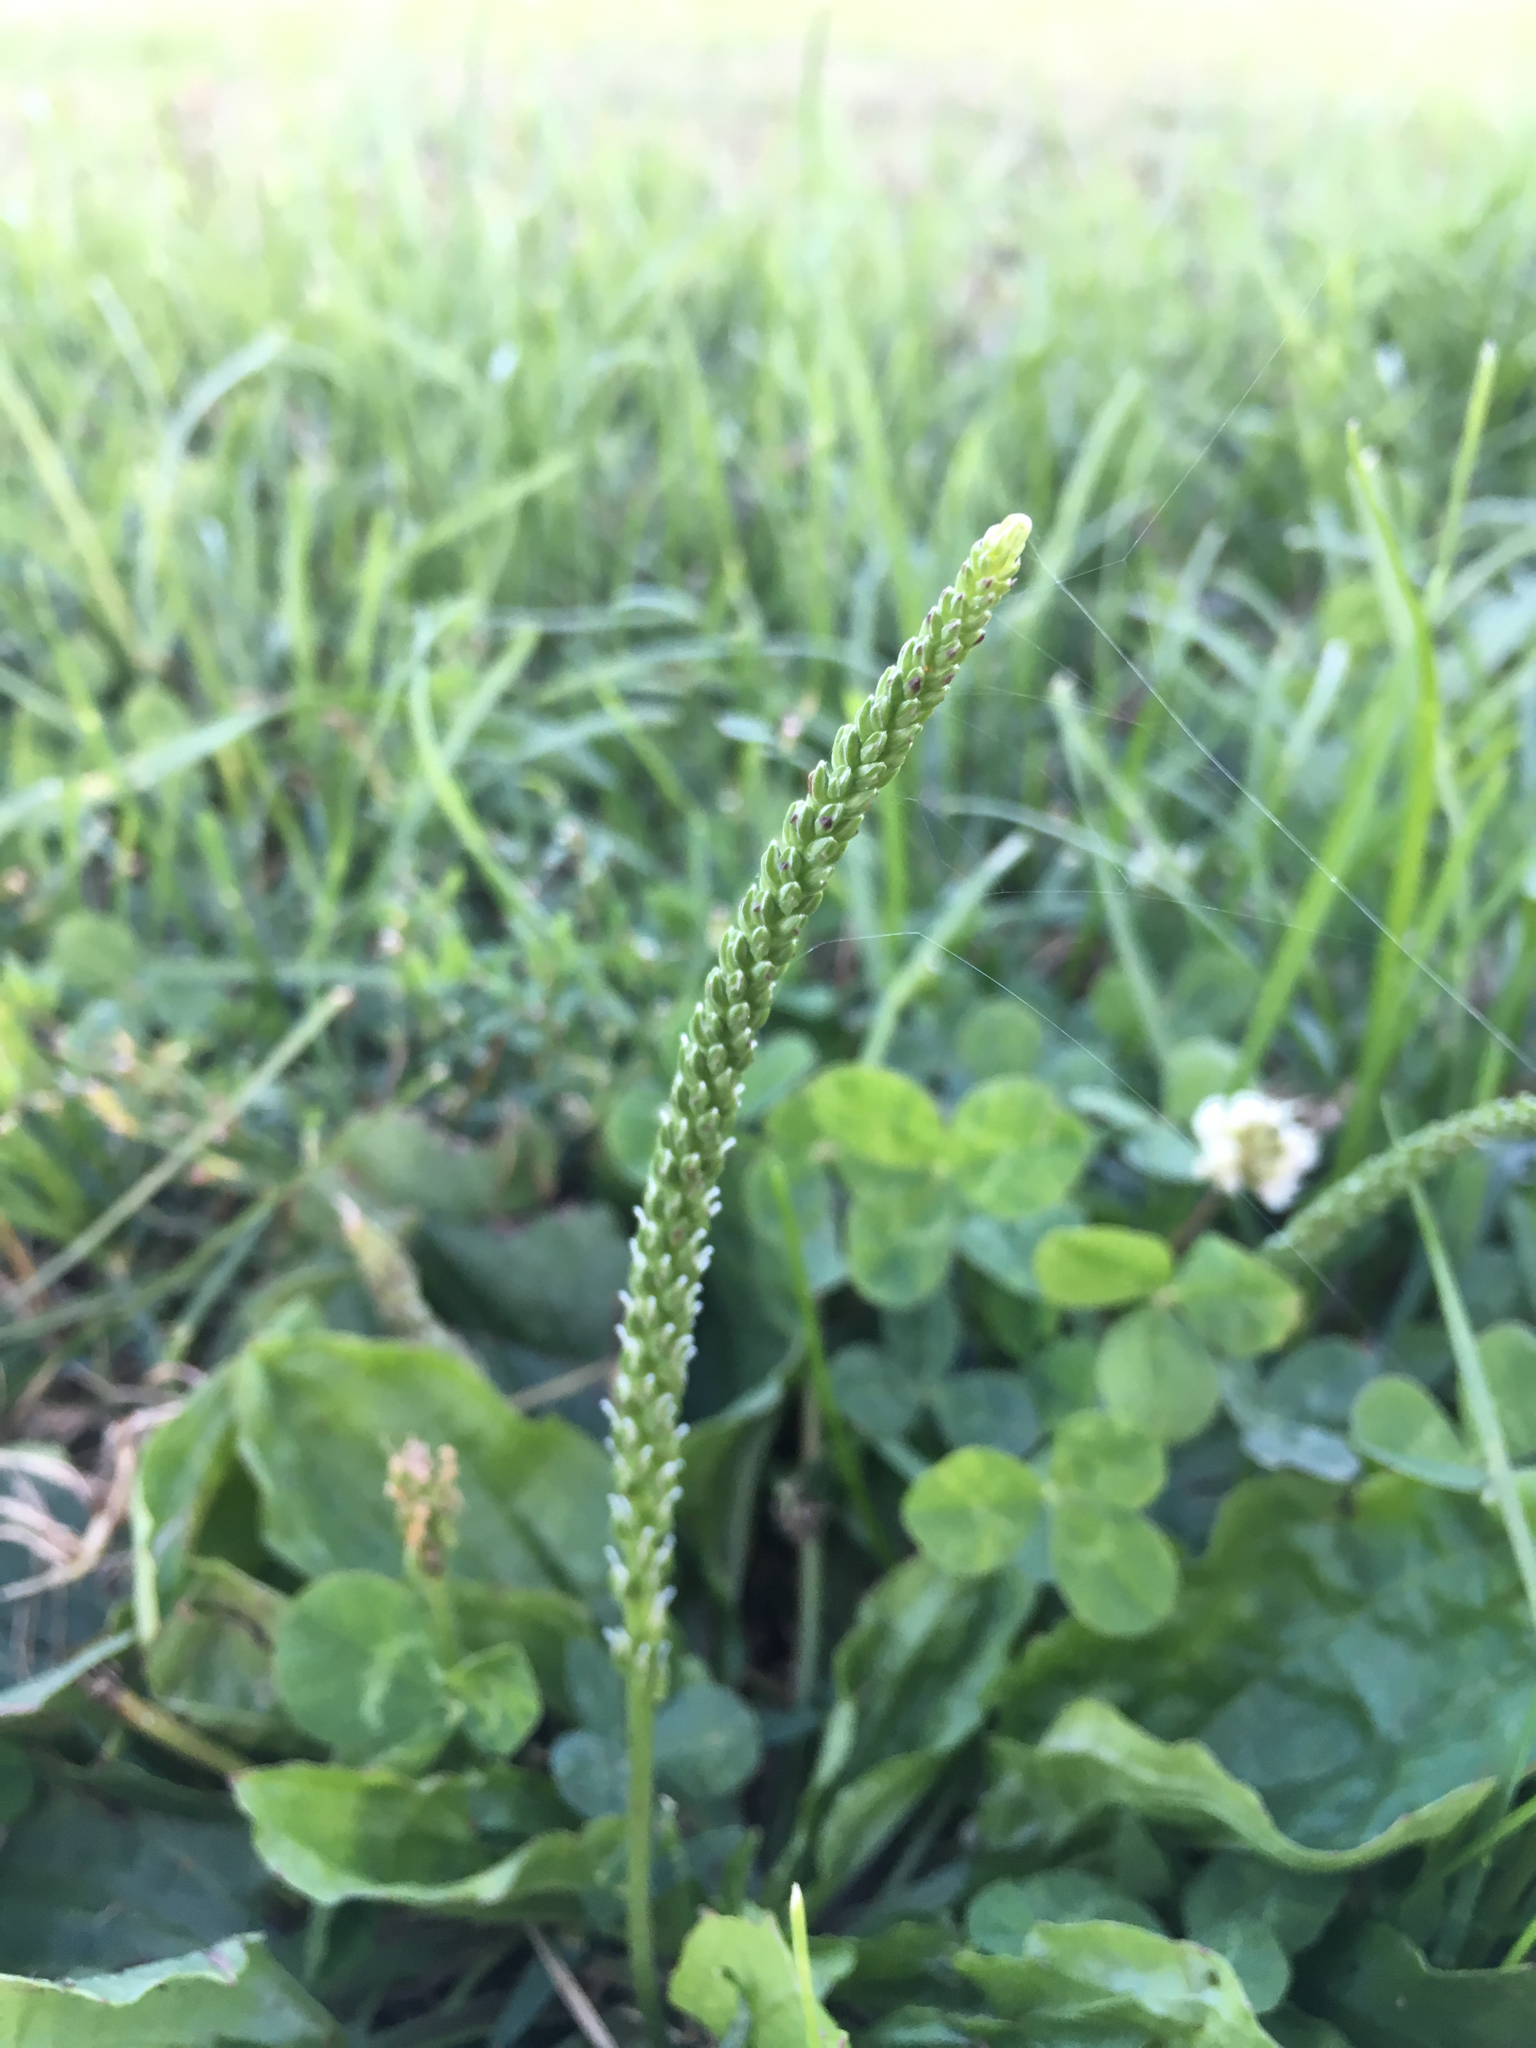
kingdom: Plantae
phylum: Tracheophyta
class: Magnoliopsida
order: Lamiales
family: Plantaginaceae
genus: Plantago
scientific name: Plantago major
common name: Common plantain
